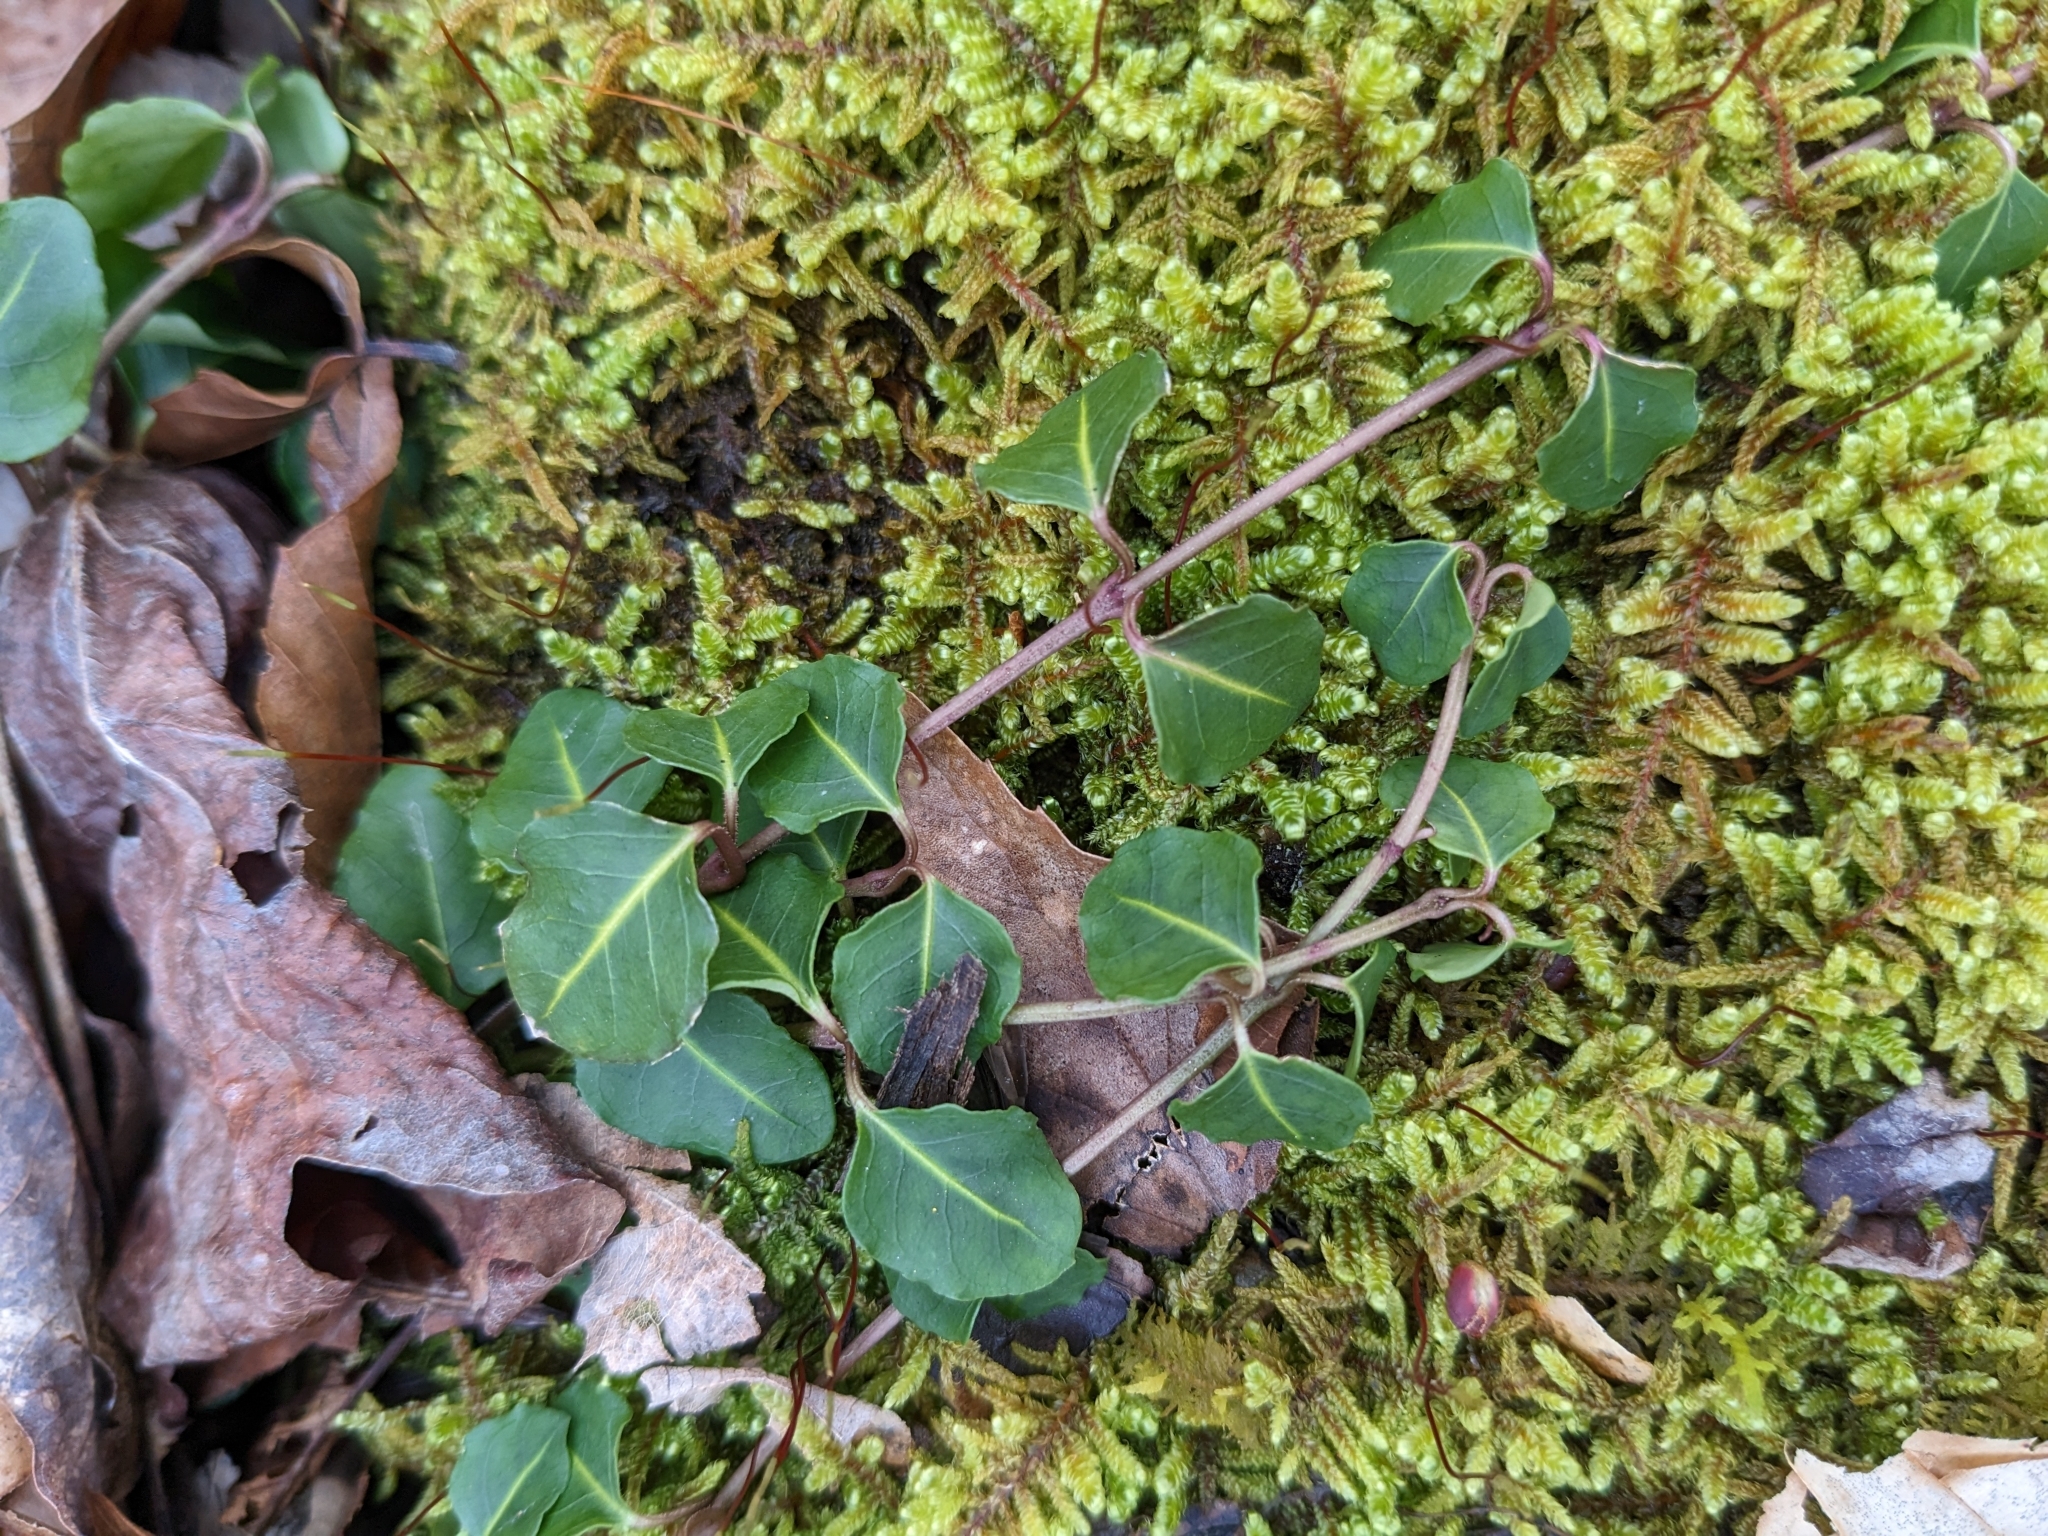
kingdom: Plantae
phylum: Tracheophyta
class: Magnoliopsida
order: Gentianales
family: Rubiaceae
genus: Mitchella
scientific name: Mitchella repens
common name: Partridge-berry
